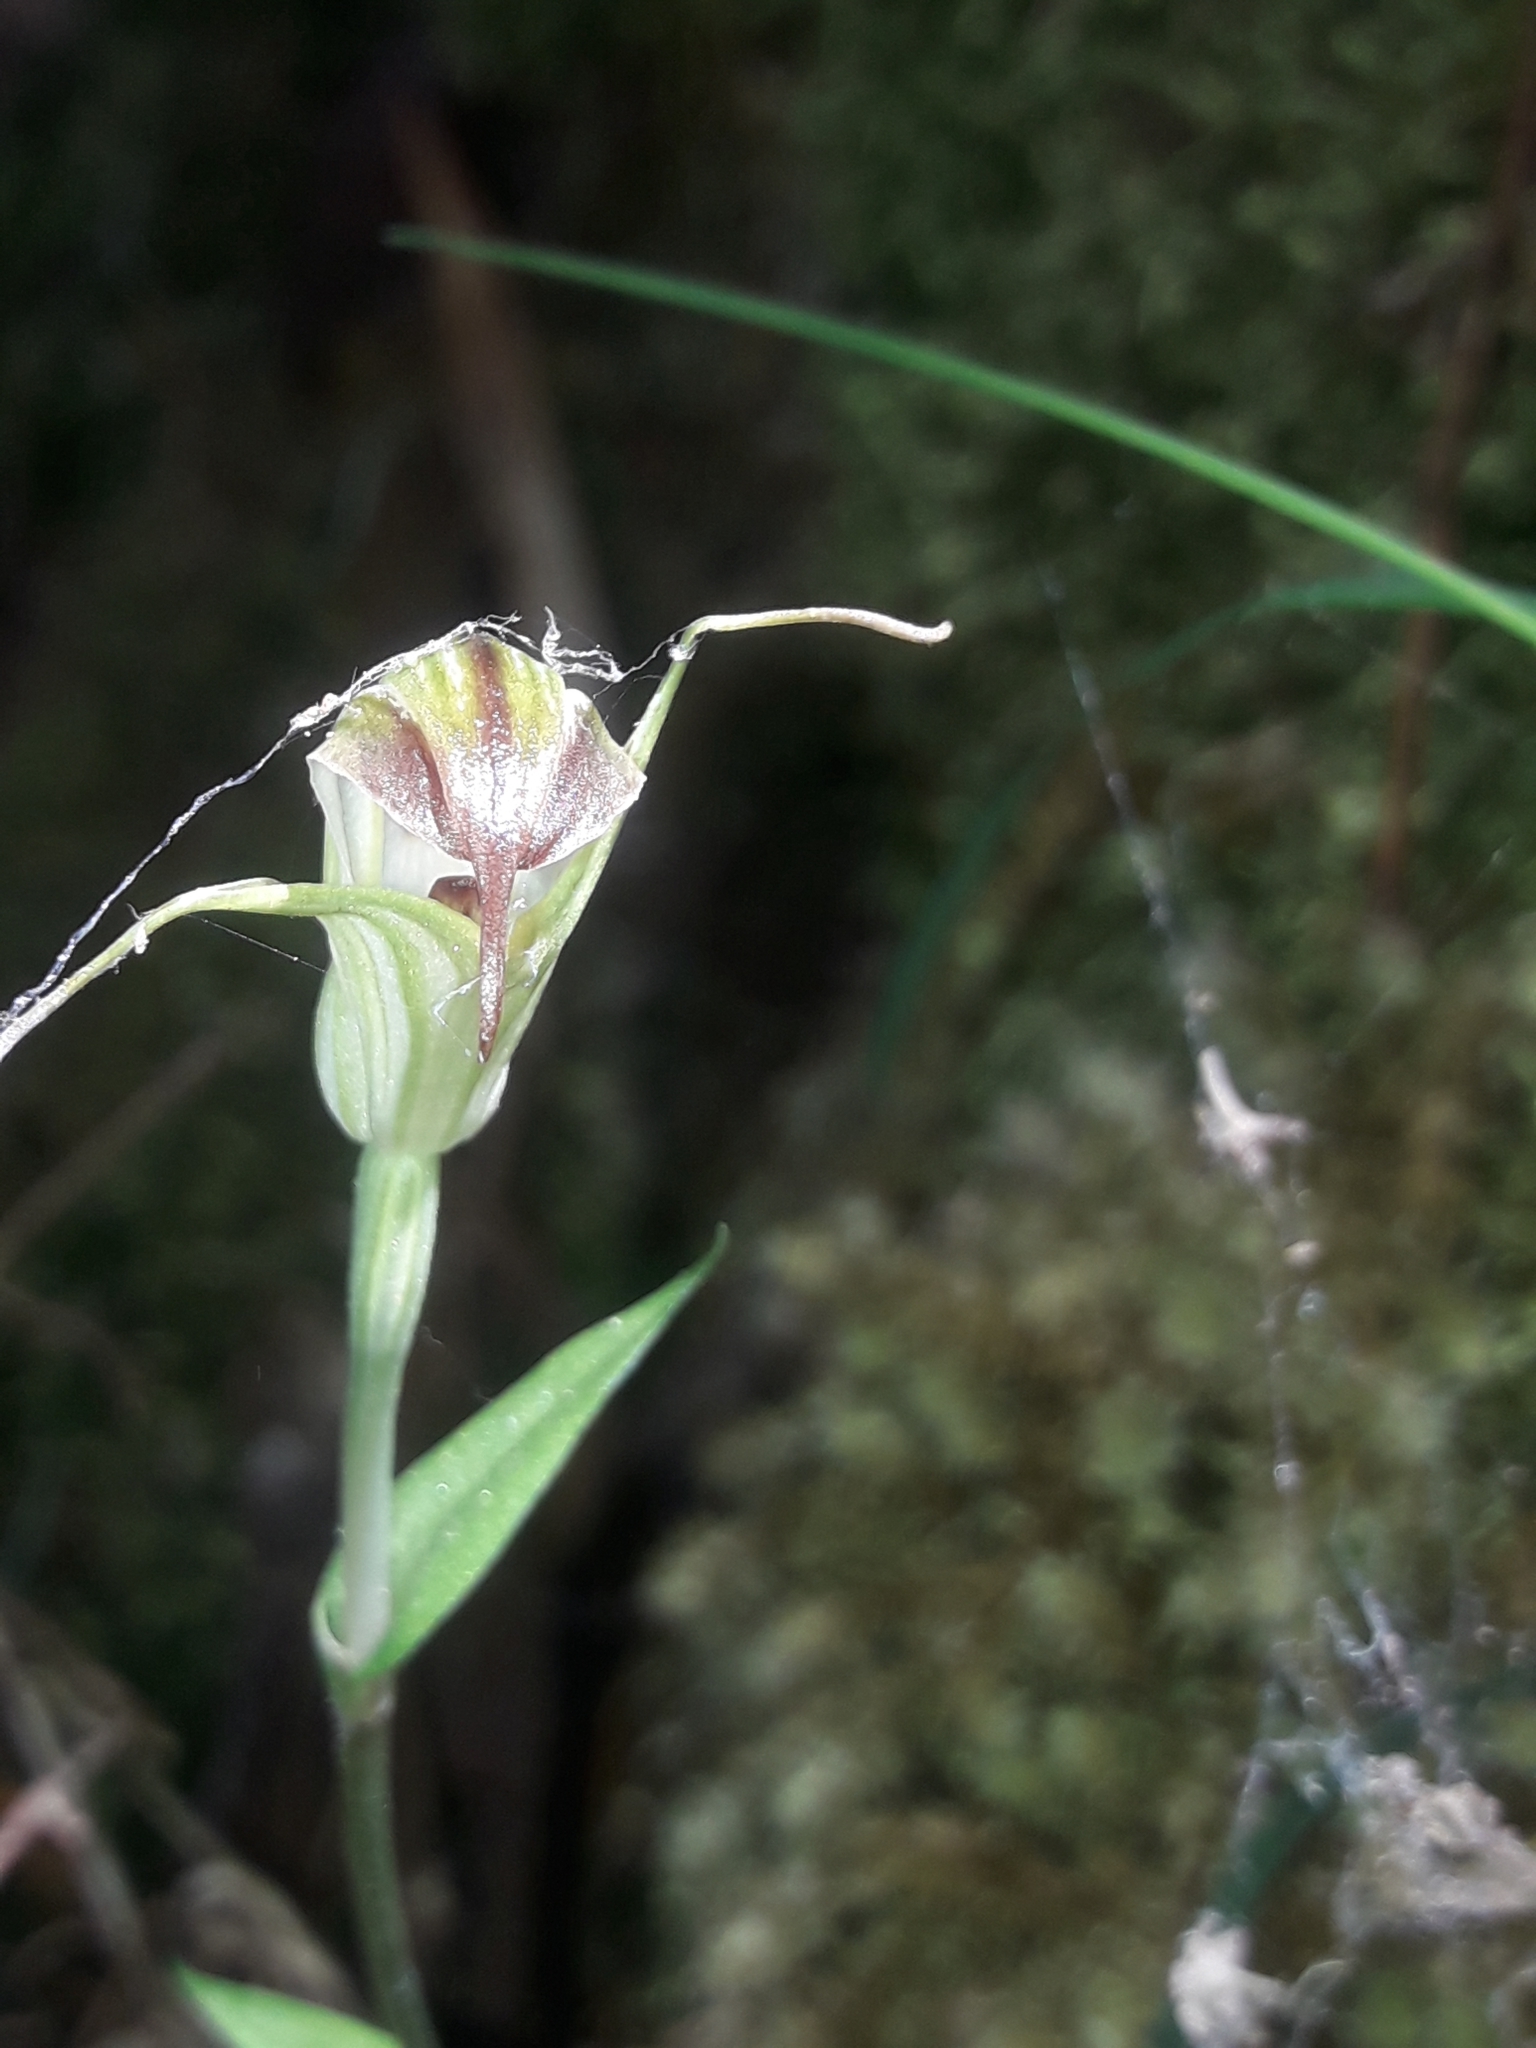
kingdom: Plantae
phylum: Tracheophyta
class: Liliopsida
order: Asparagales
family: Orchidaceae
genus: Pterostylis
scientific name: Pterostylis atrans
